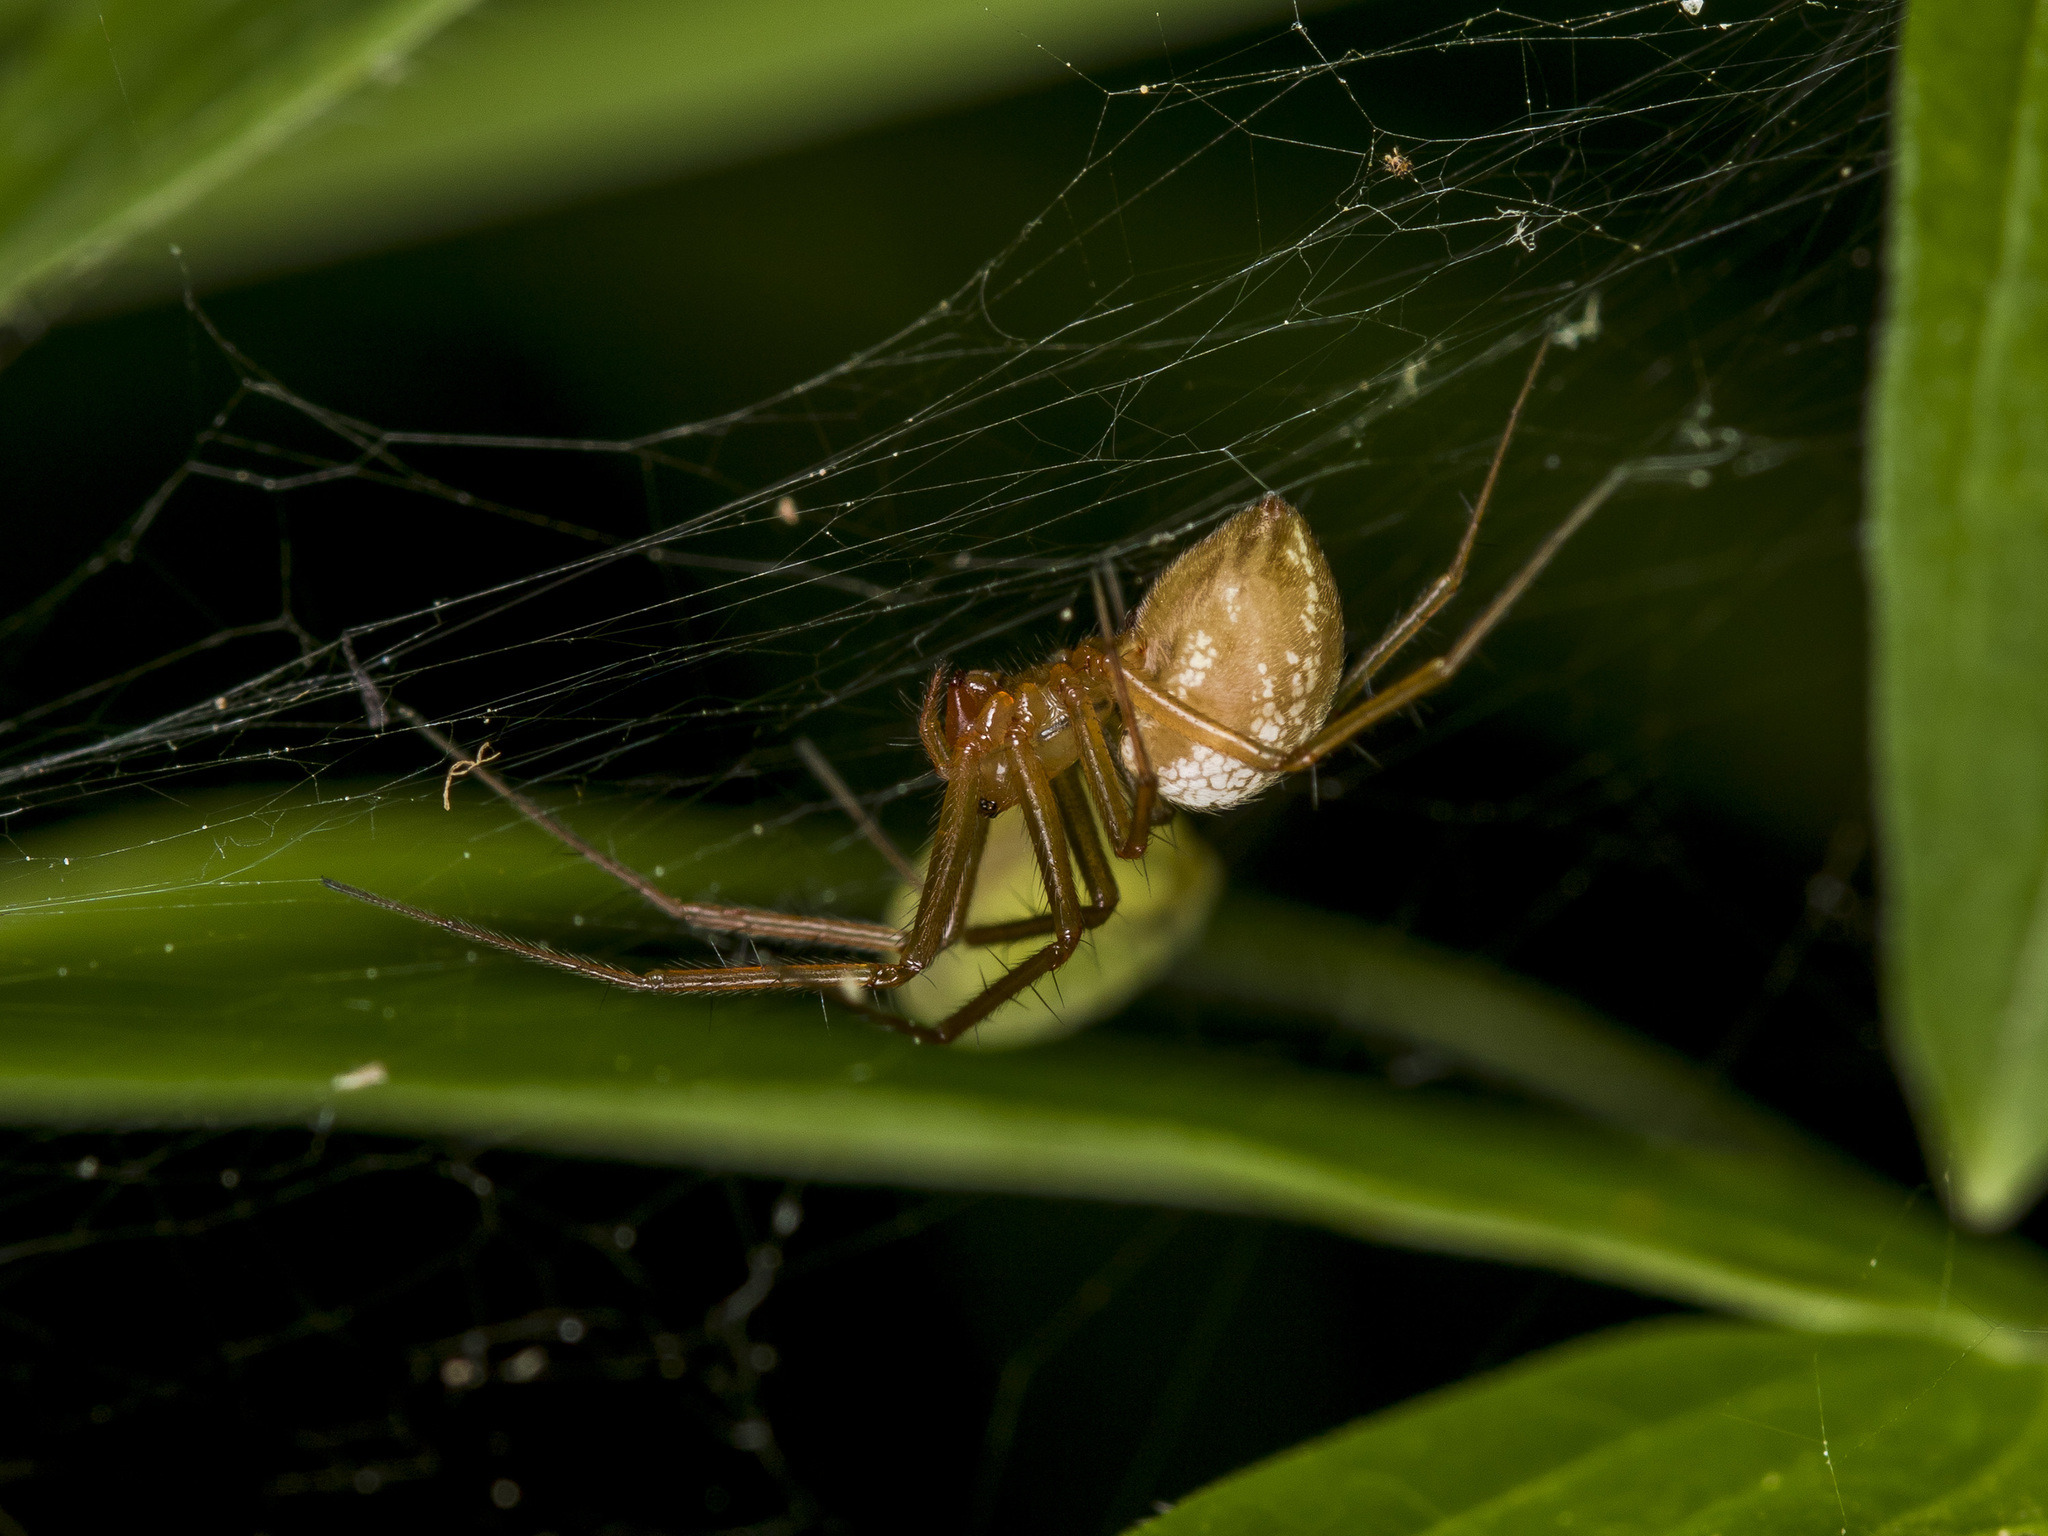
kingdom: Animalia
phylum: Arthropoda
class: Arachnida
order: Araneae
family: Linyphiidae
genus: Bolyphantes
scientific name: Bolyphantes alticeps
